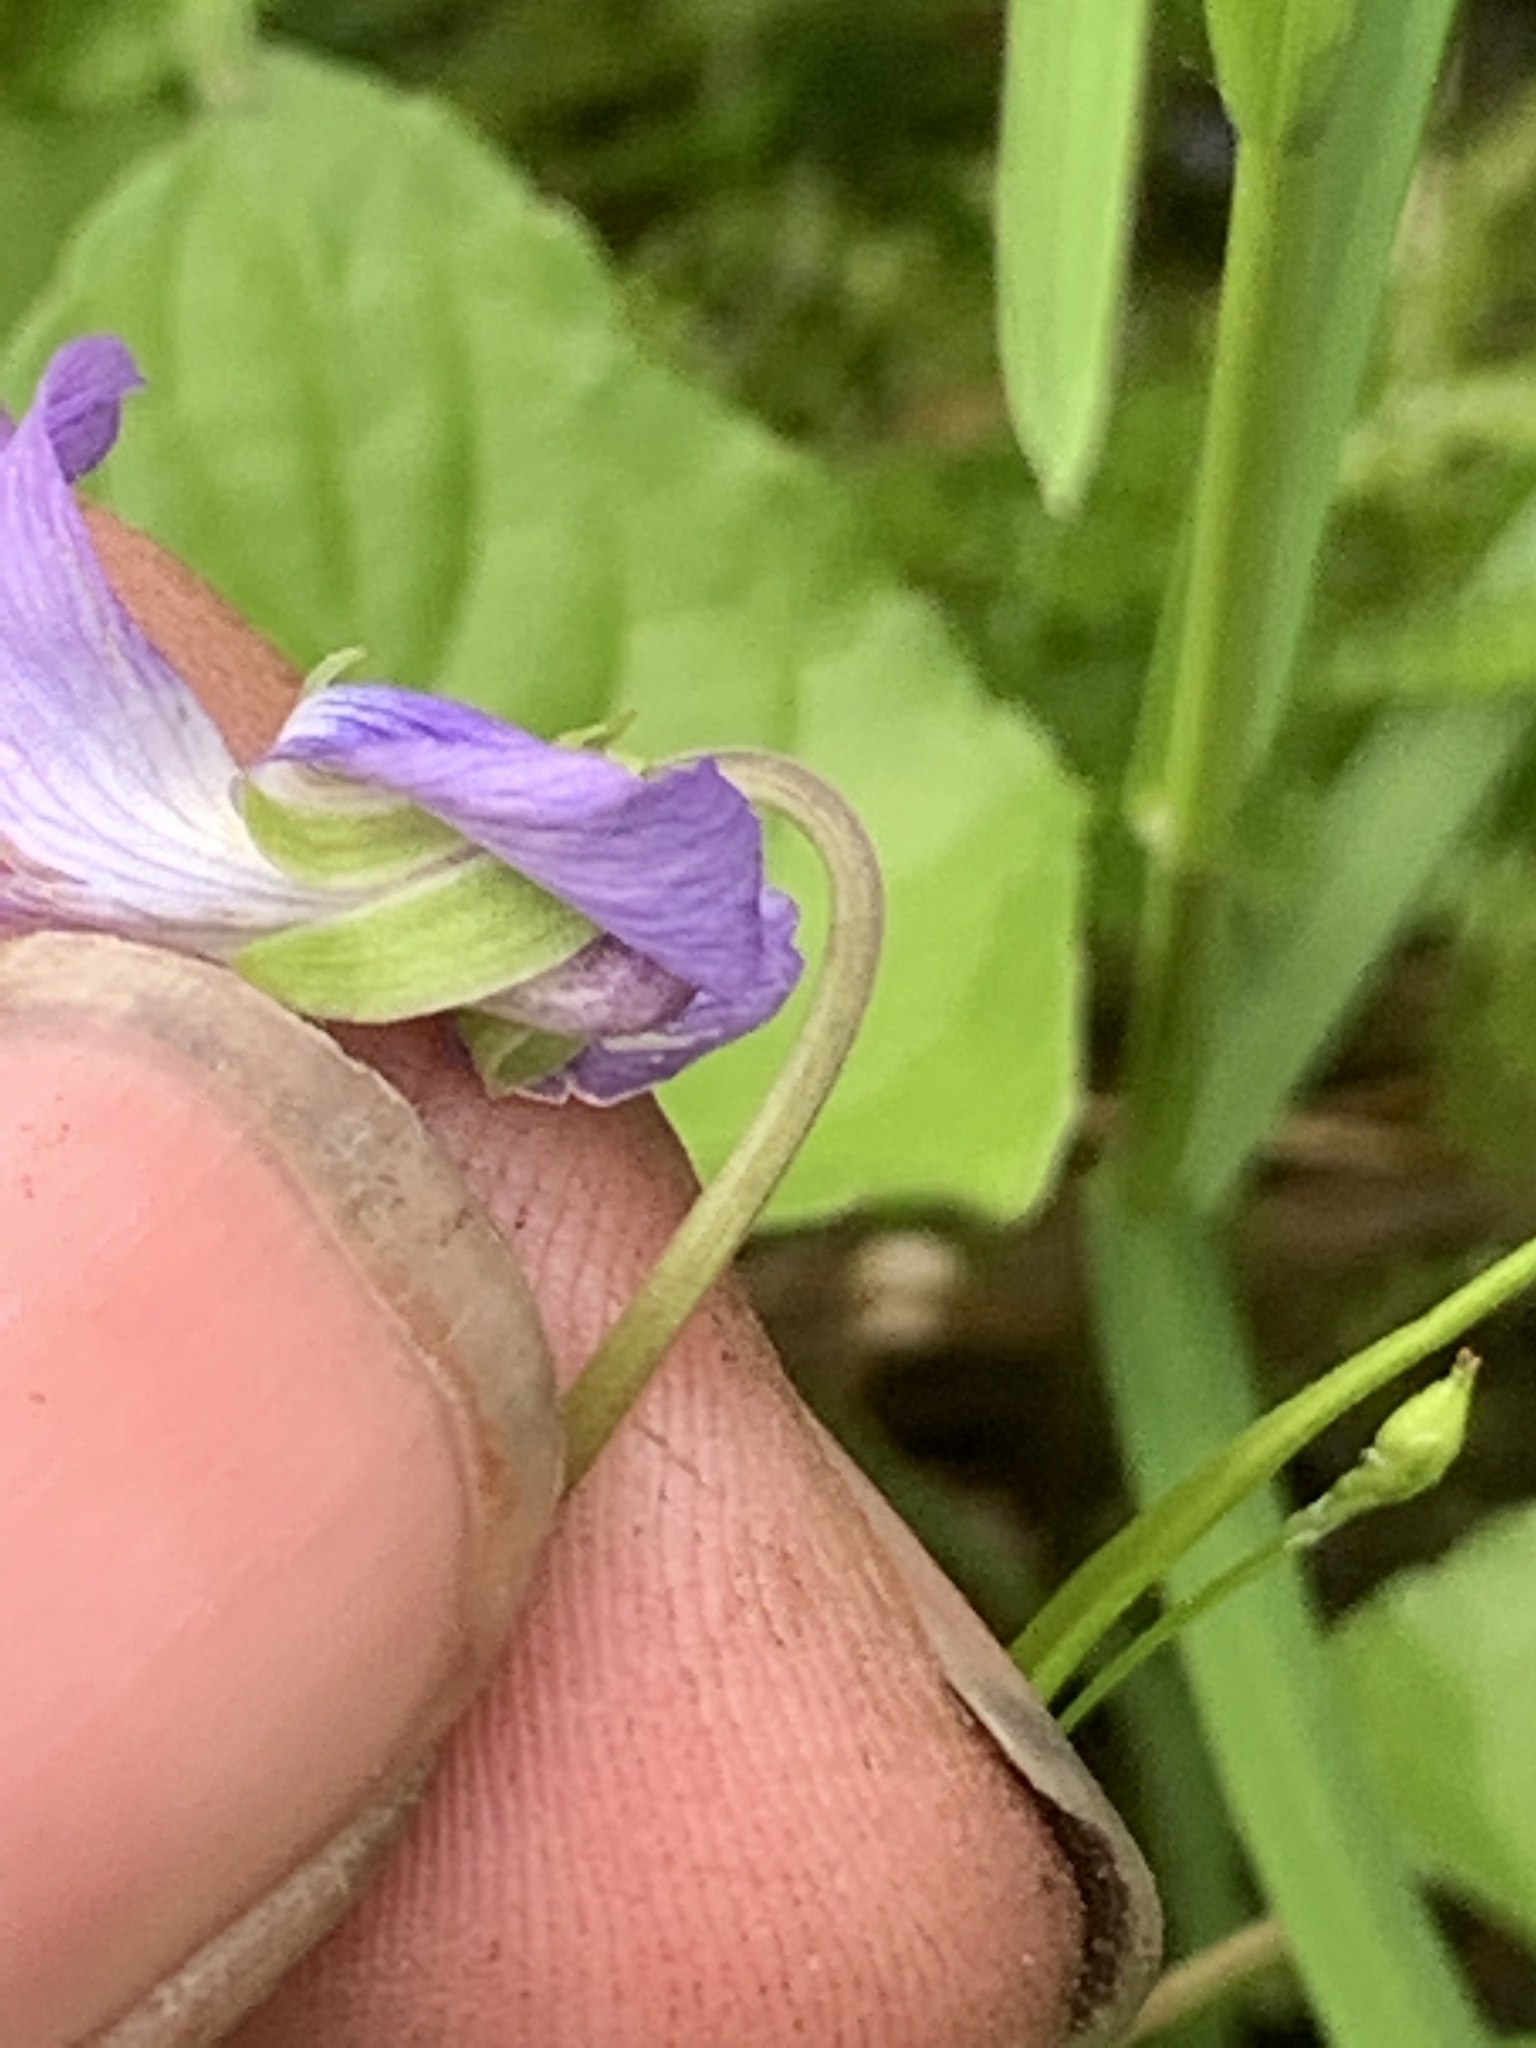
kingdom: Plantae
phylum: Tracheophyta
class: Magnoliopsida
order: Malpighiales
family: Violaceae
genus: Viola
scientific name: Viola cucullata
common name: Marsh blue violet
